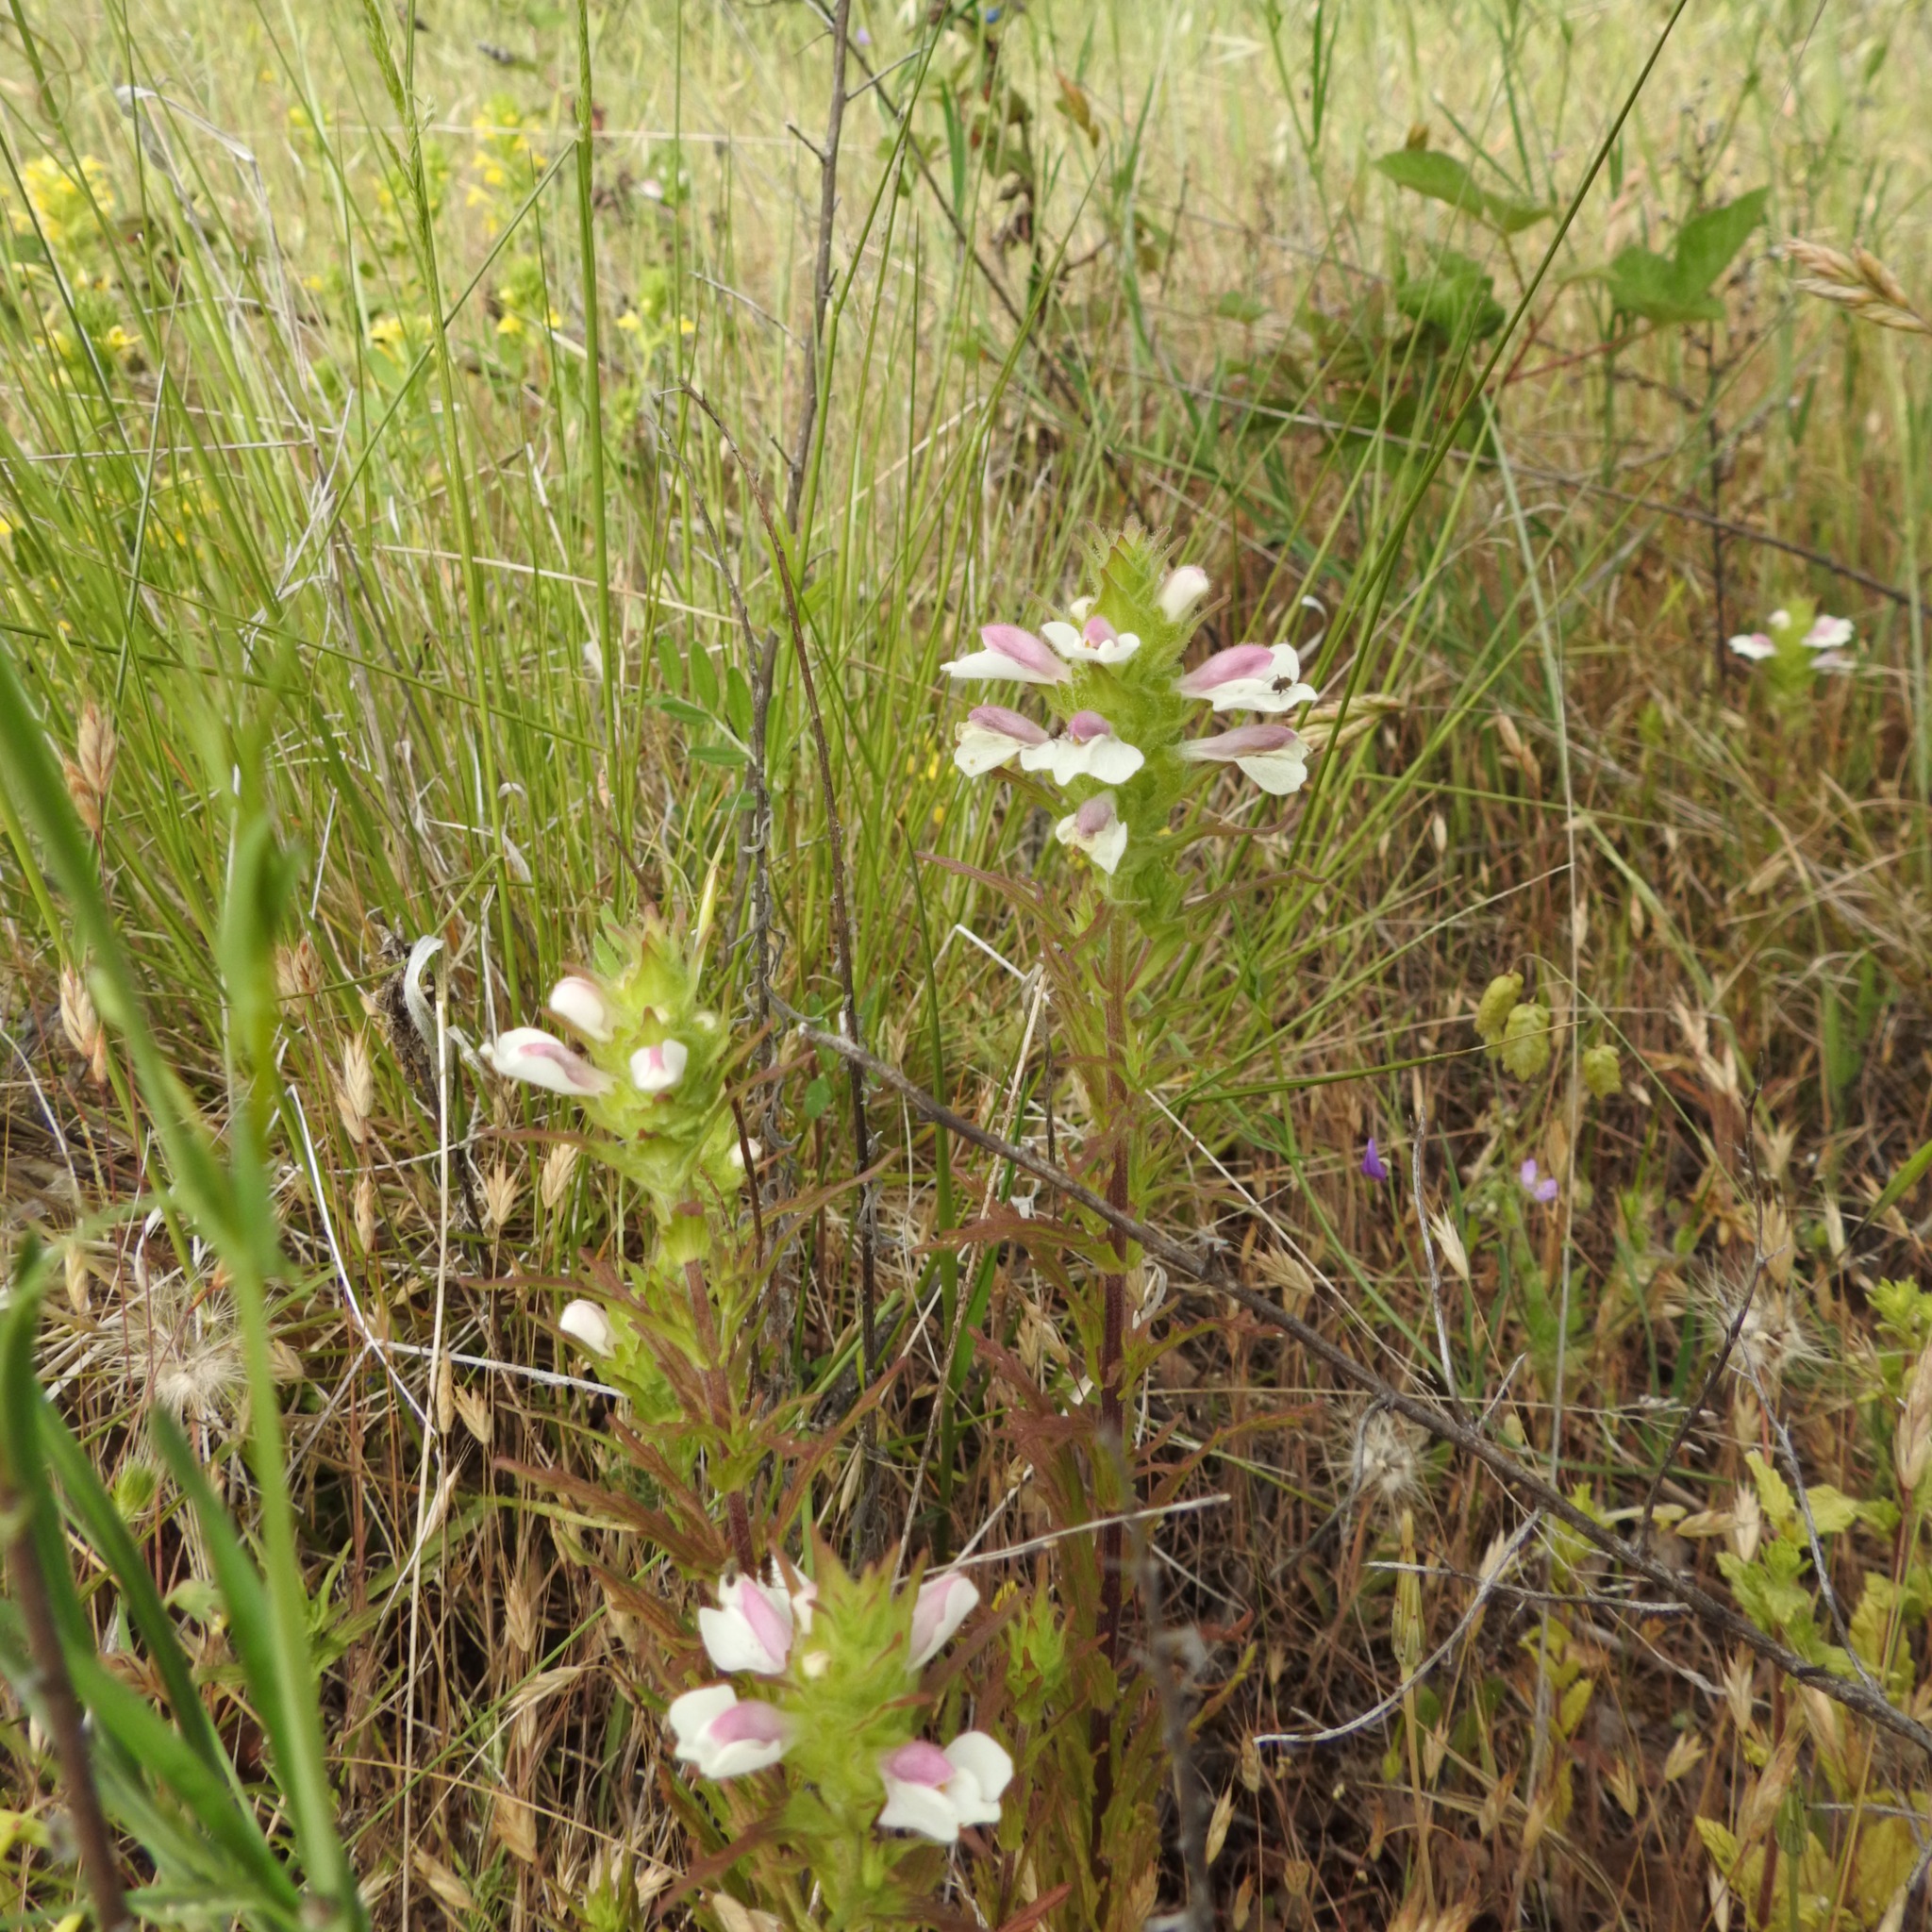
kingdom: Plantae
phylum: Tracheophyta
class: Magnoliopsida
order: Lamiales
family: Orobanchaceae
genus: Bellardia
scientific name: Bellardia trixago
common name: Mediterranean lineseed
